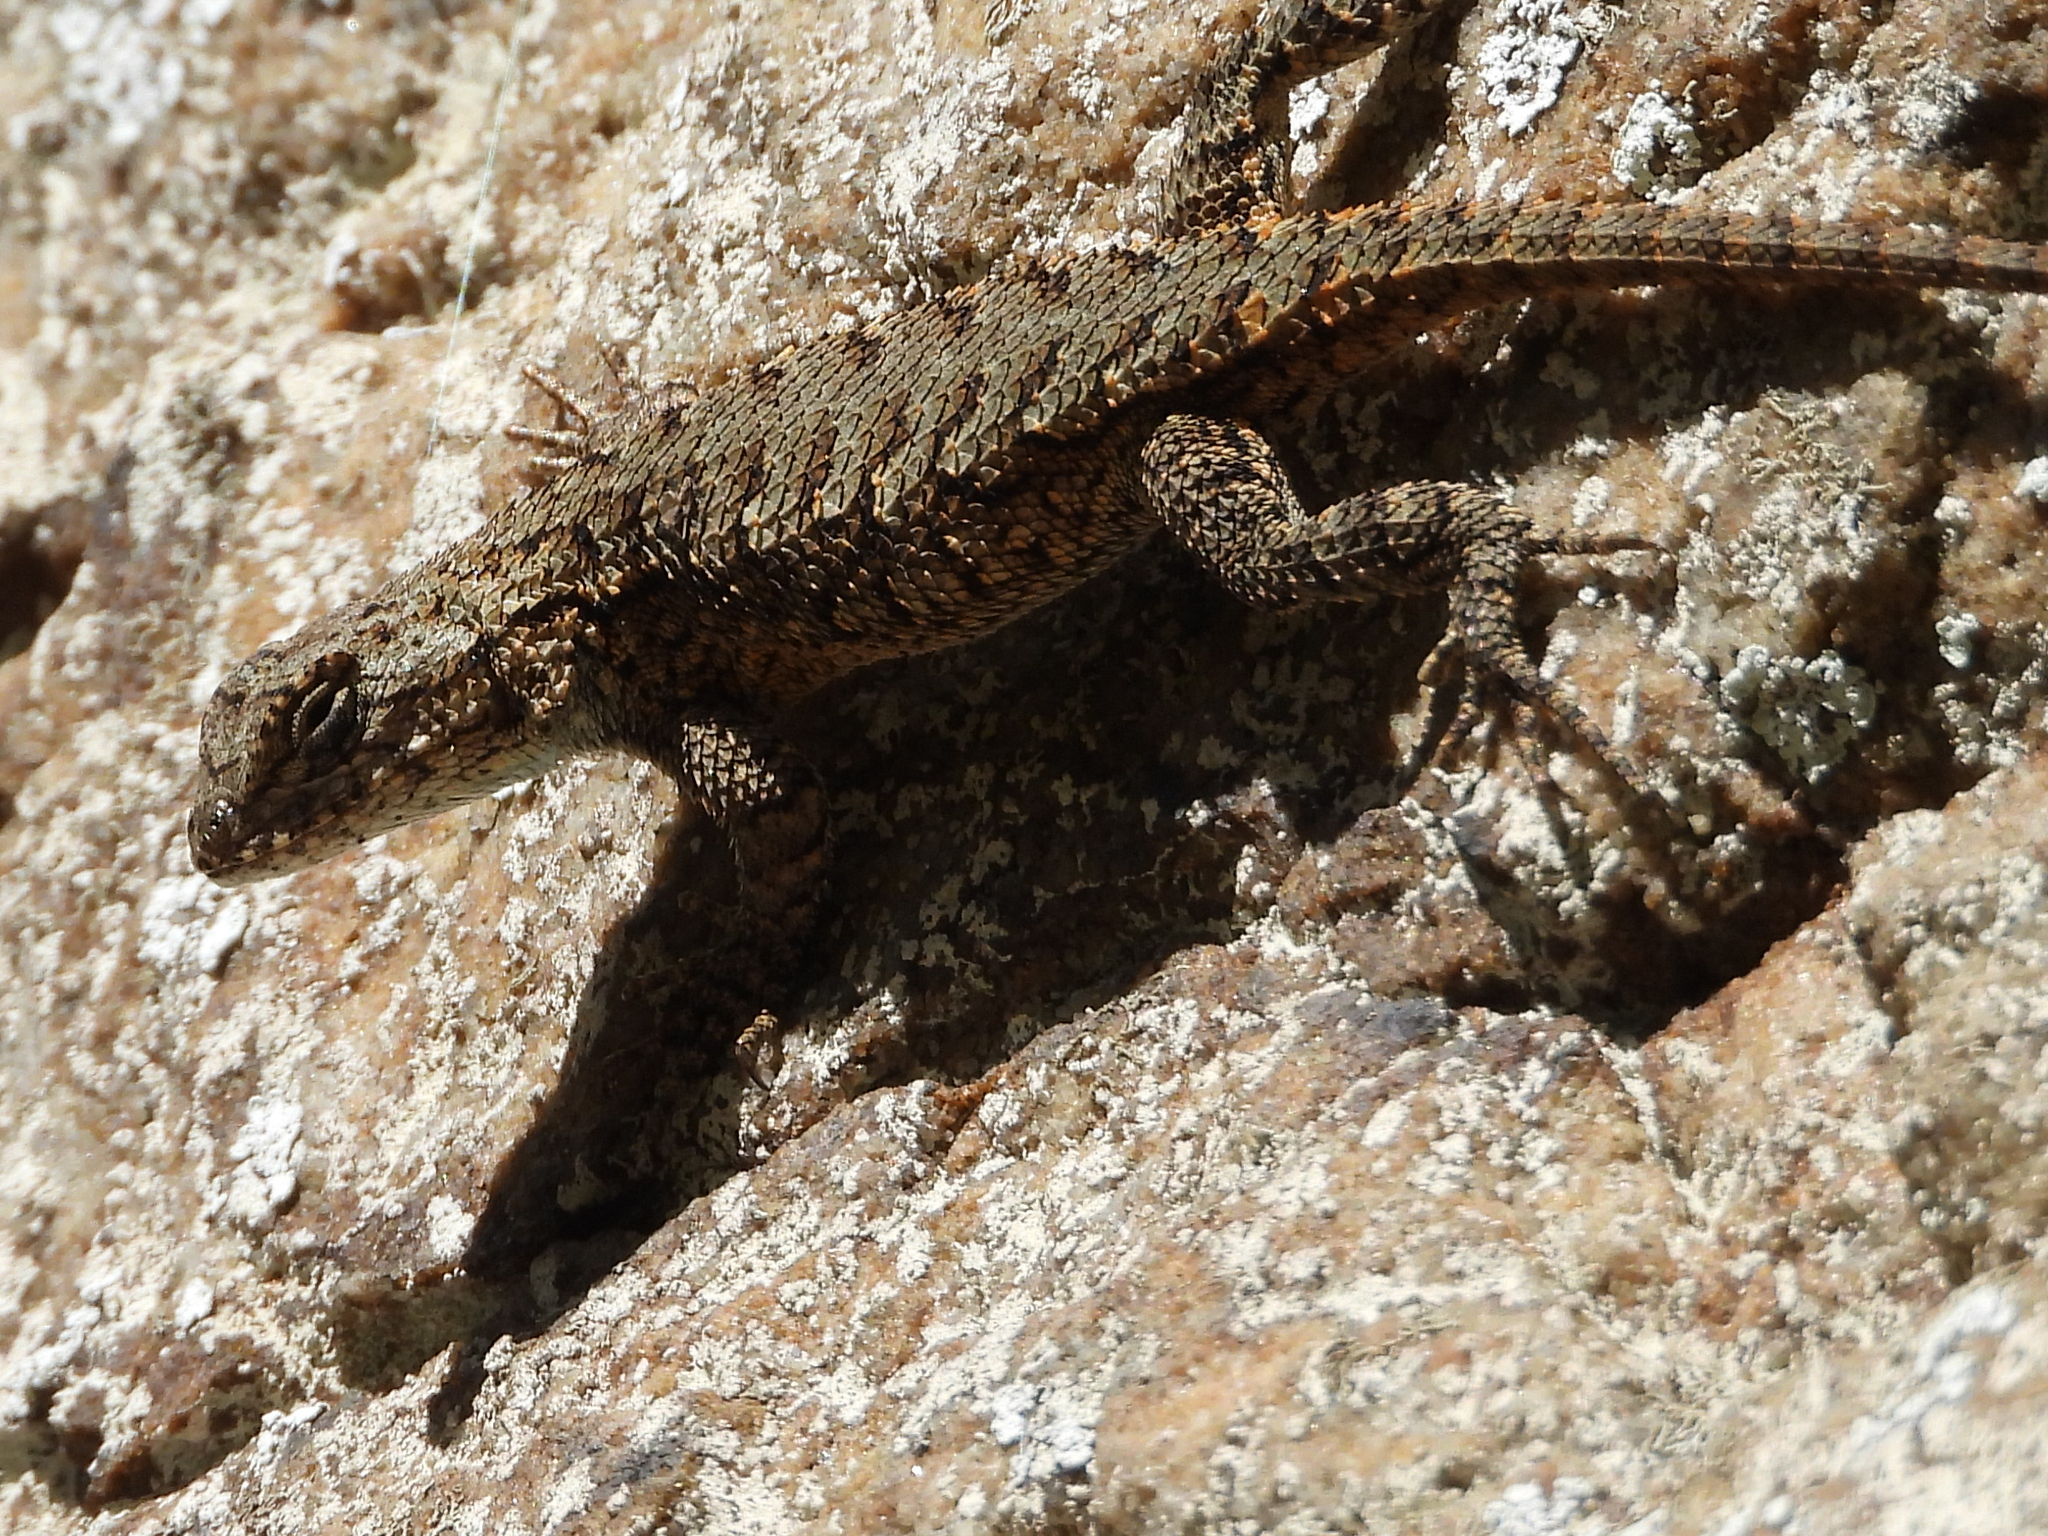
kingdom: Animalia
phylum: Chordata
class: Squamata
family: Phrynosomatidae
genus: Sceloporus
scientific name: Sceloporus undulatus
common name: Eastern fence lizard
